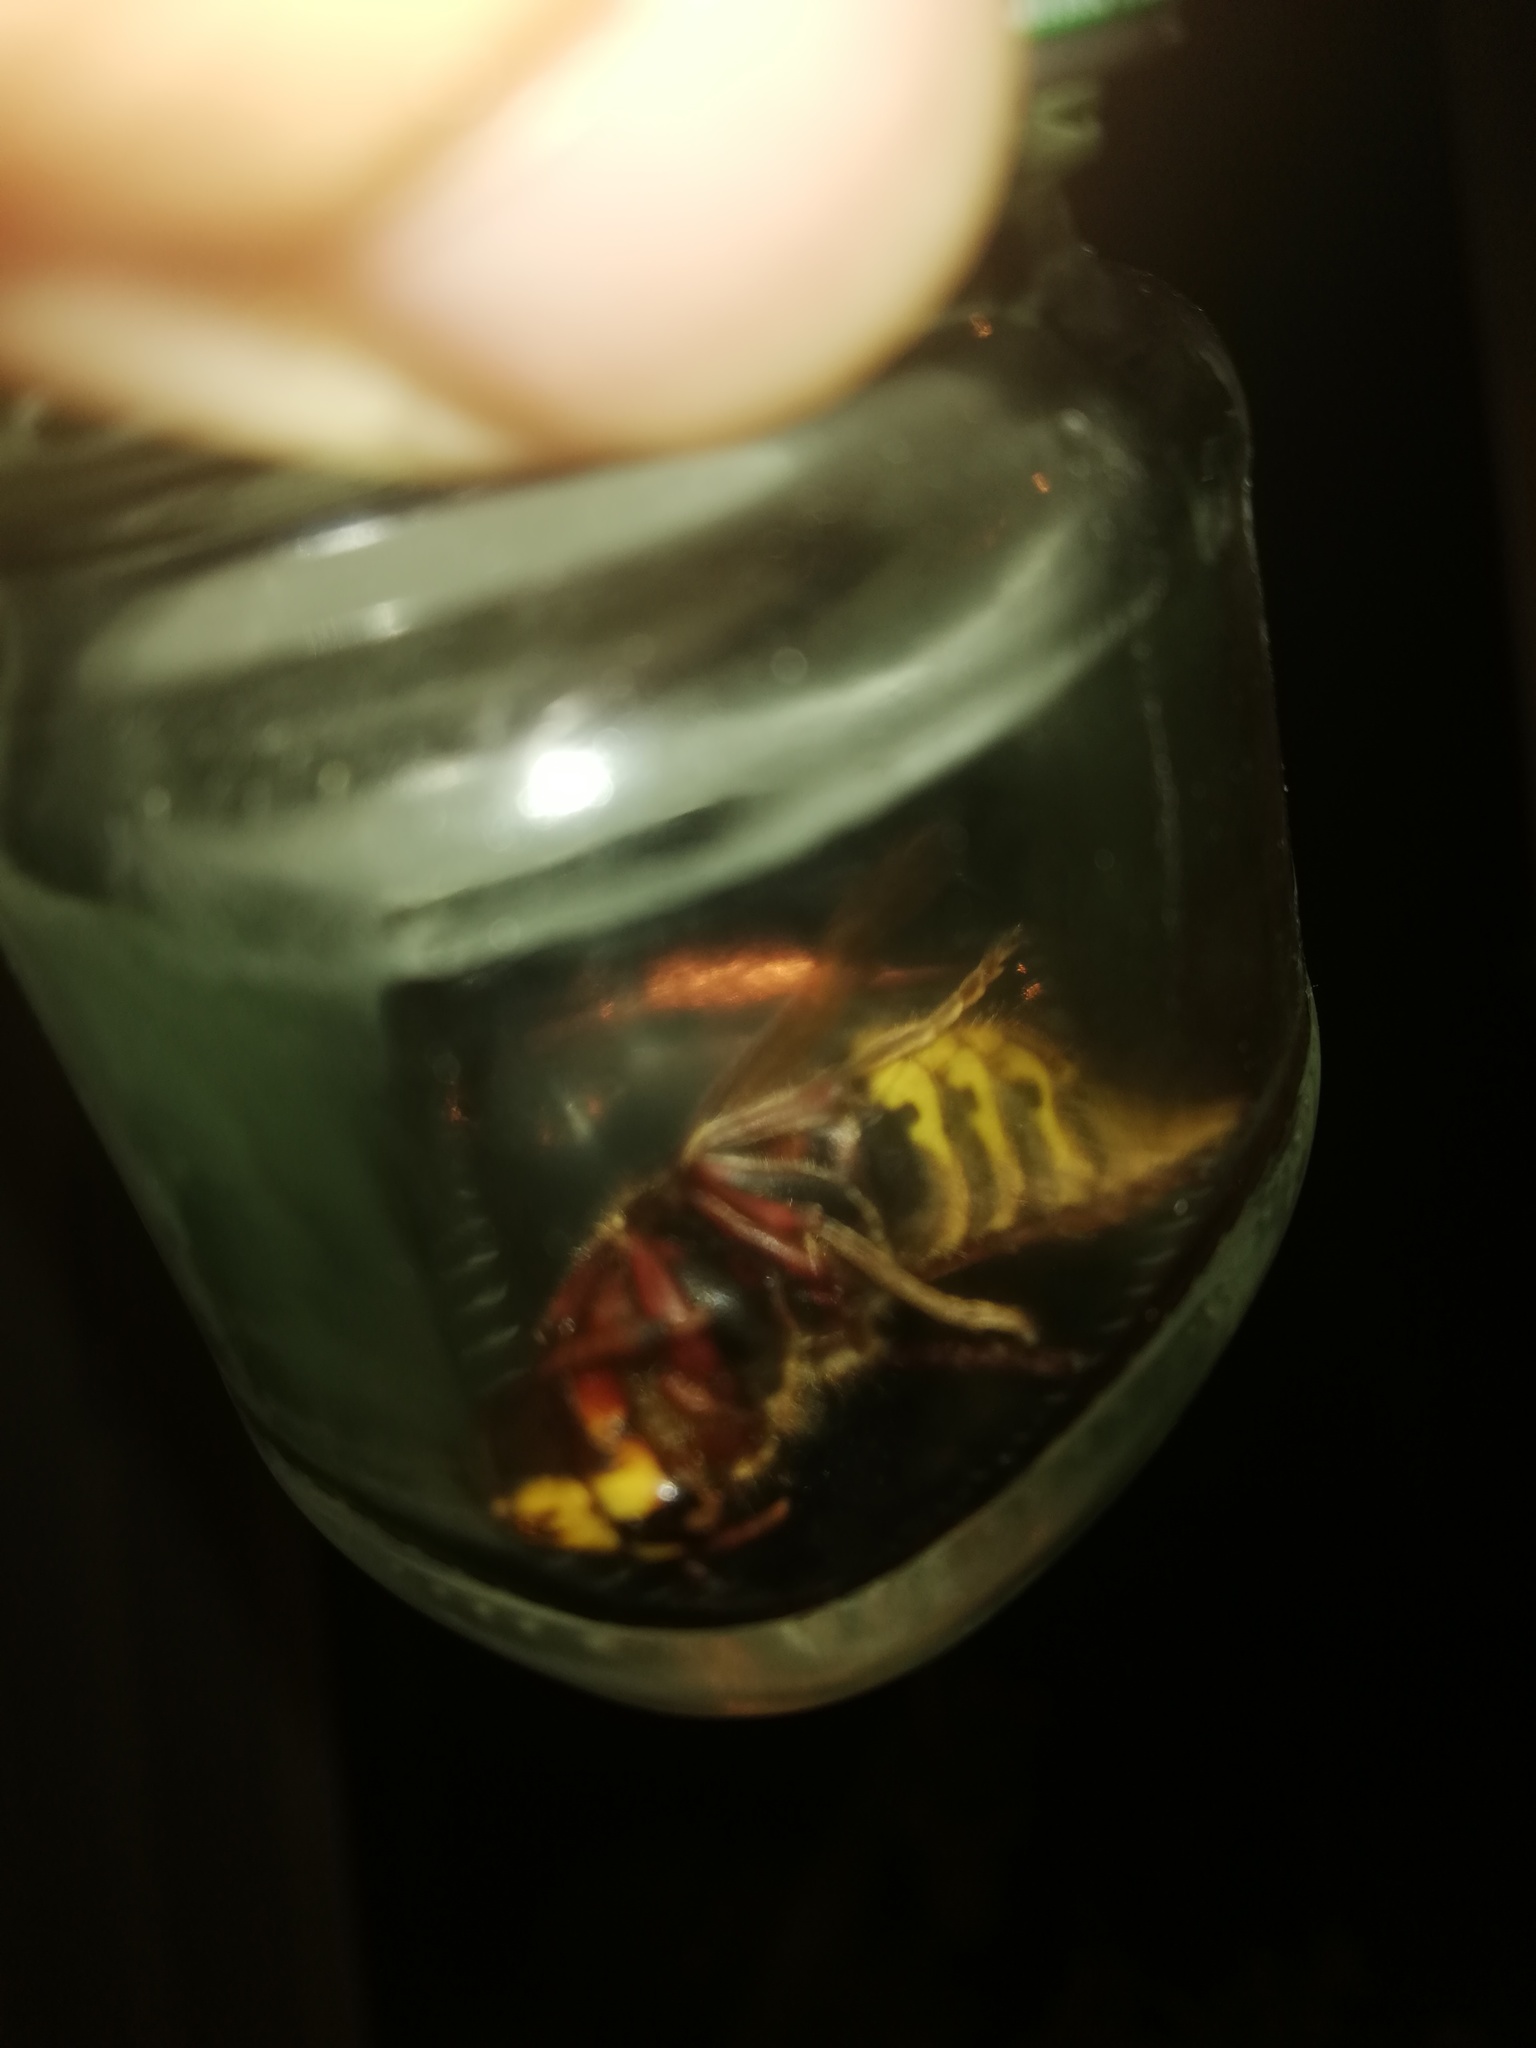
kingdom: Animalia
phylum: Arthropoda
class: Insecta
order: Hymenoptera
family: Vespidae
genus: Vespa
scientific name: Vespa crabro
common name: Hornet
